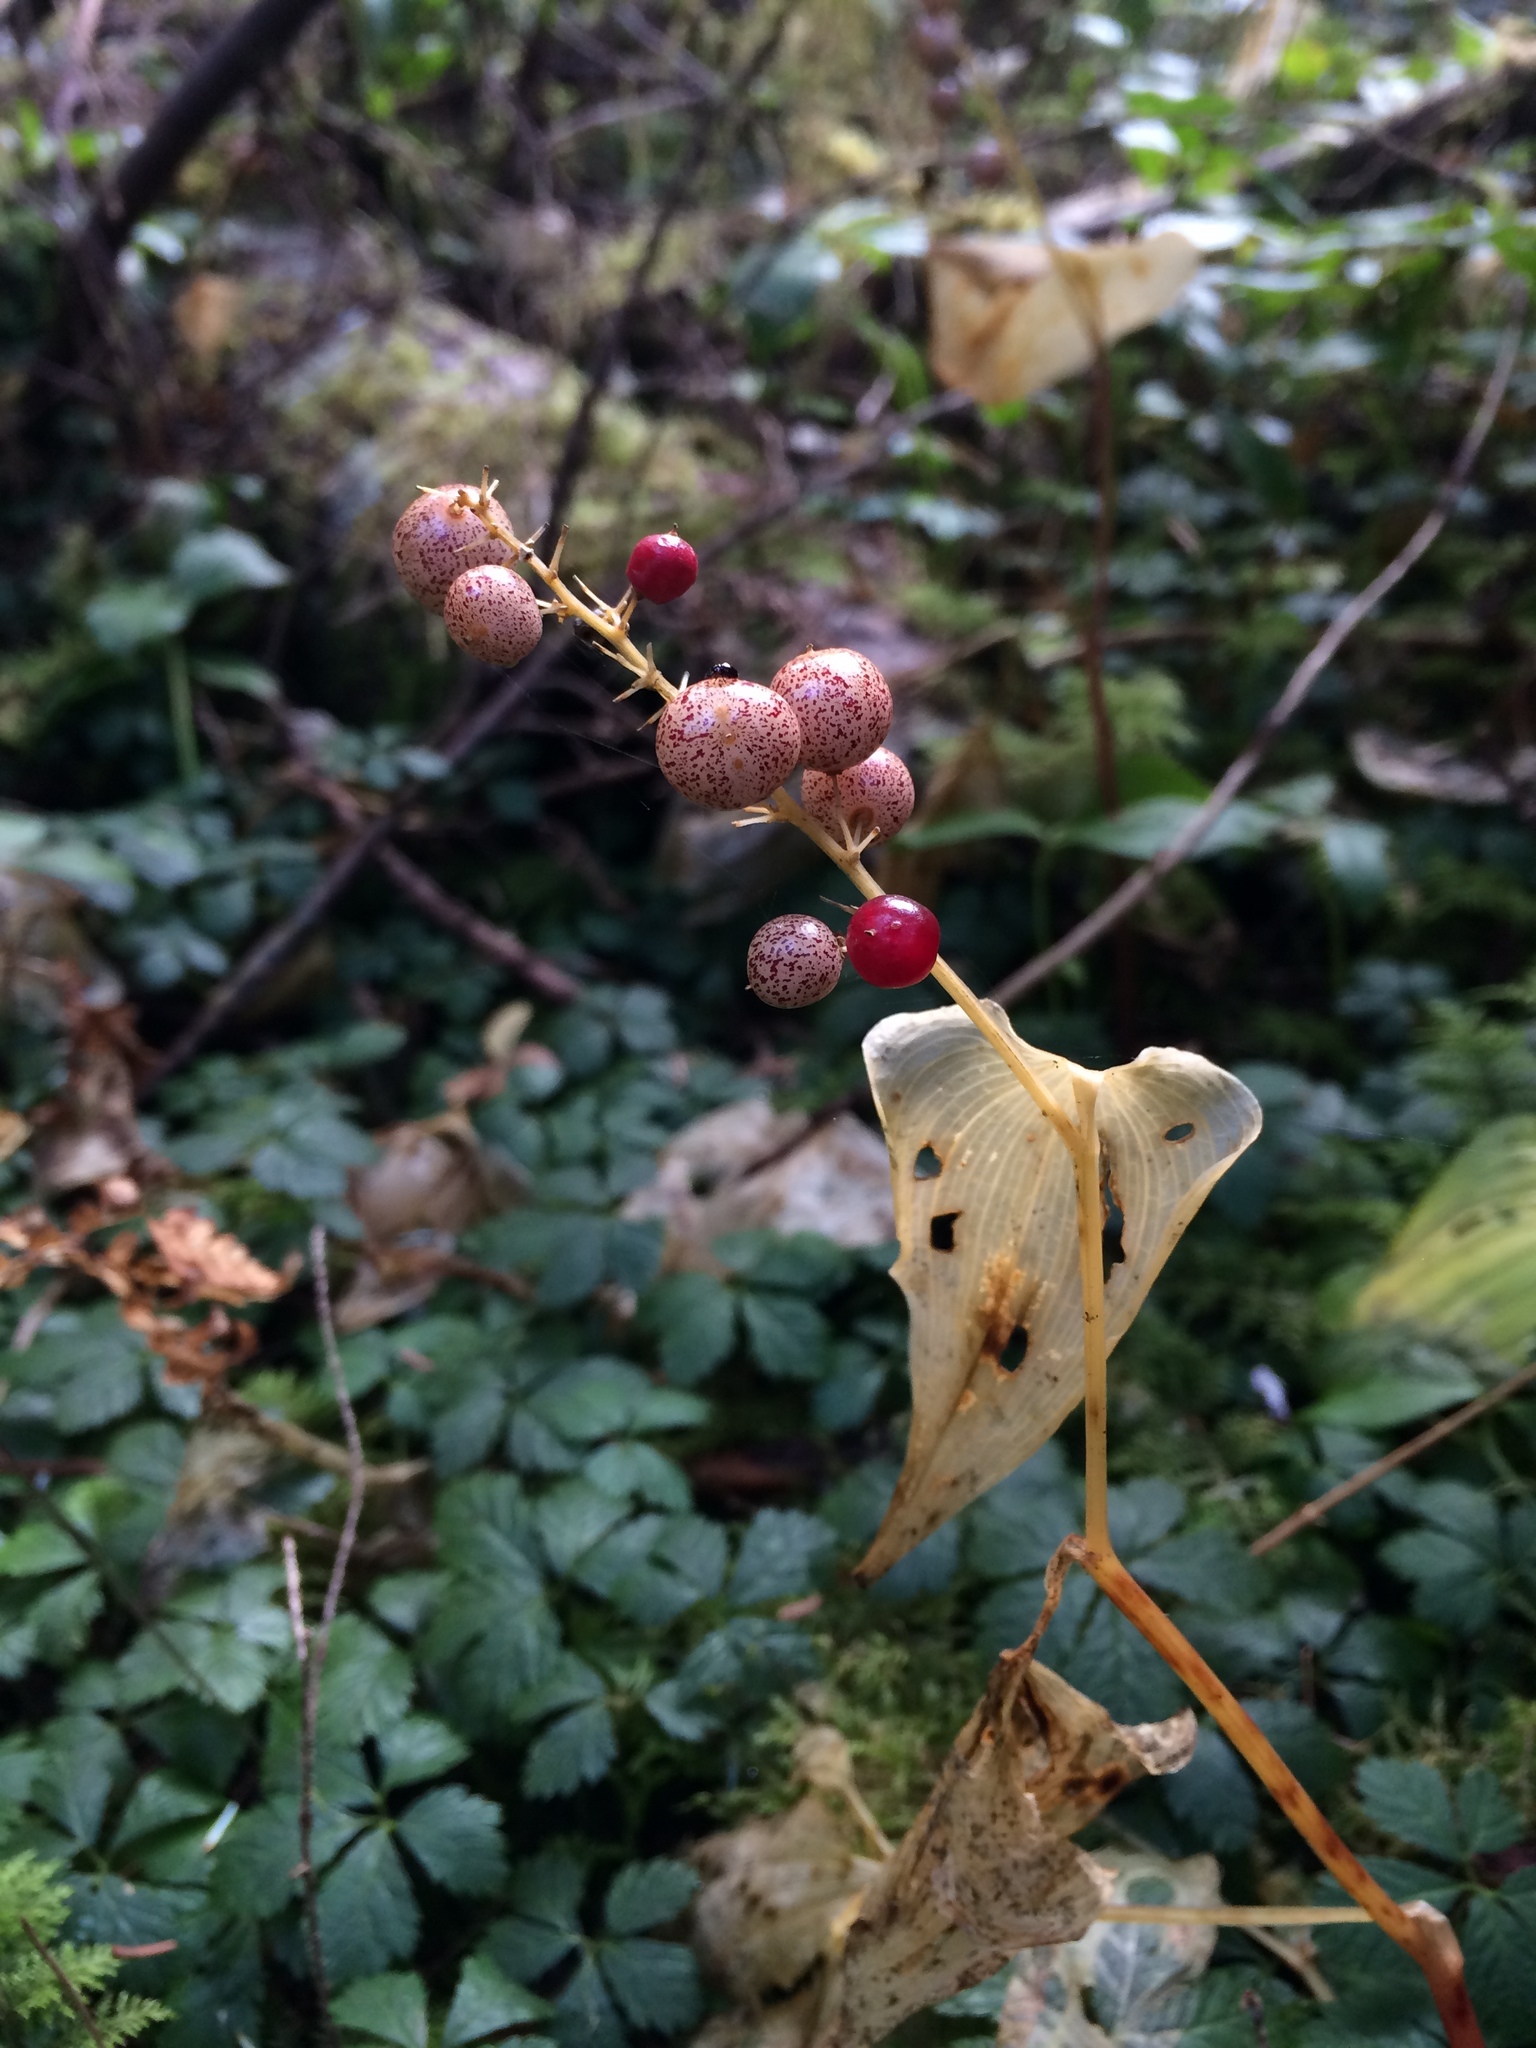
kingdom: Plantae
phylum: Tracheophyta
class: Liliopsida
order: Asparagales
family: Asparagaceae
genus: Maianthemum
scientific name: Maianthemum dilatatum
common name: False lily-of-the-valley
